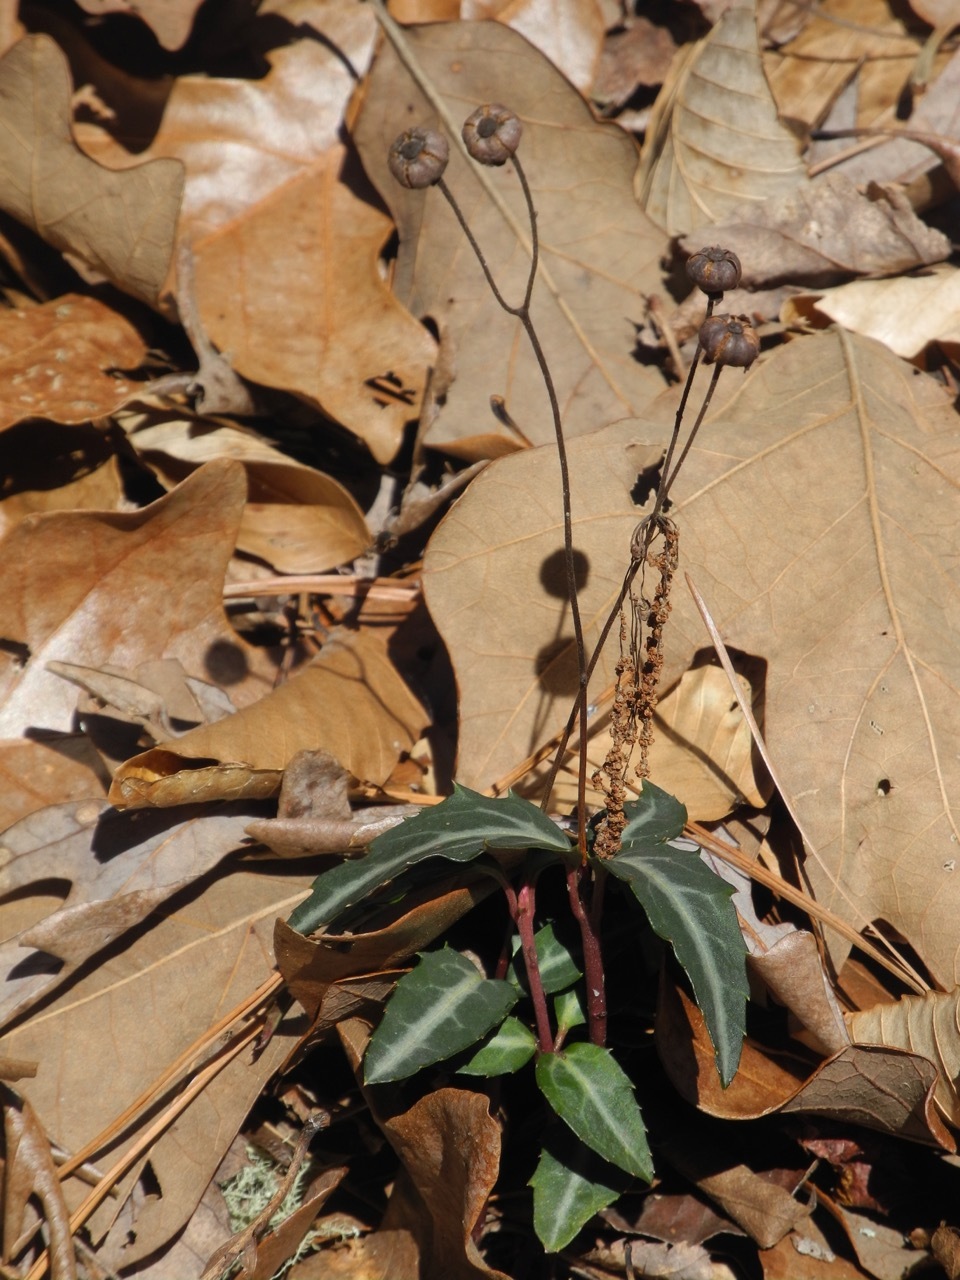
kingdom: Plantae
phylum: Tracheophyta
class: Magnoliopsida
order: Ericales
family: Ericaceae
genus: Chimaphila
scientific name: Chimaphila maculata
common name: Spotted pipsissewa
